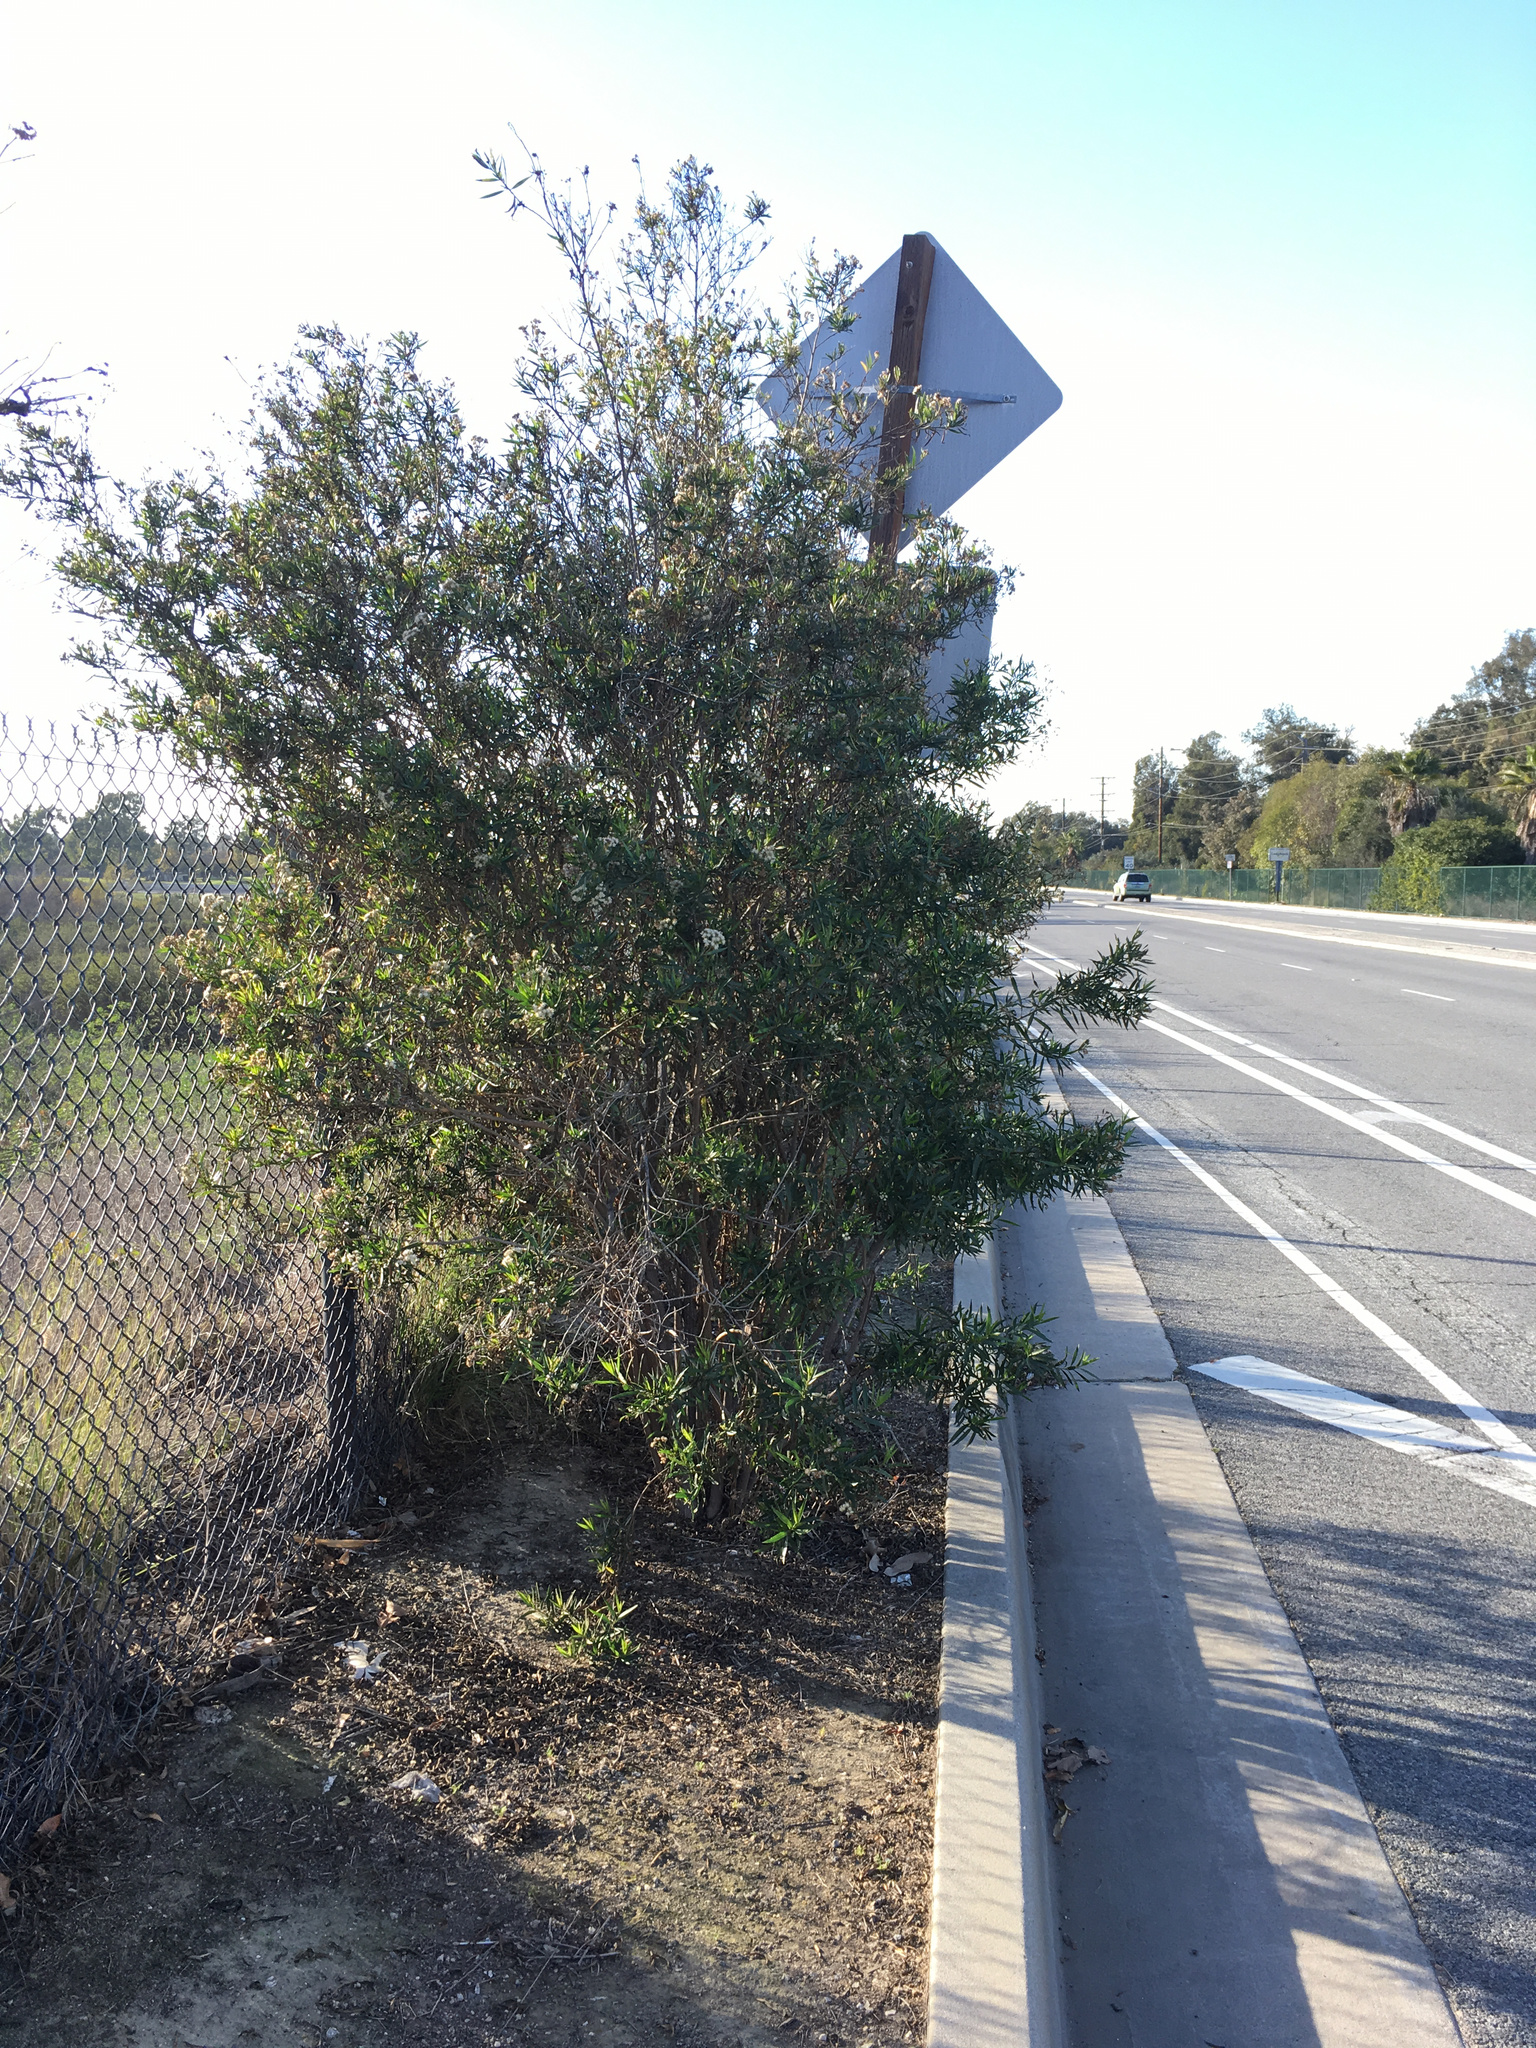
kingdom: Plantae
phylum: Tracheophyta
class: Magnoliopsida
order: Asterales
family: Asteraceae
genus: Baccharis
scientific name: Baccharis salicifolia
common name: Sticky baccharis
